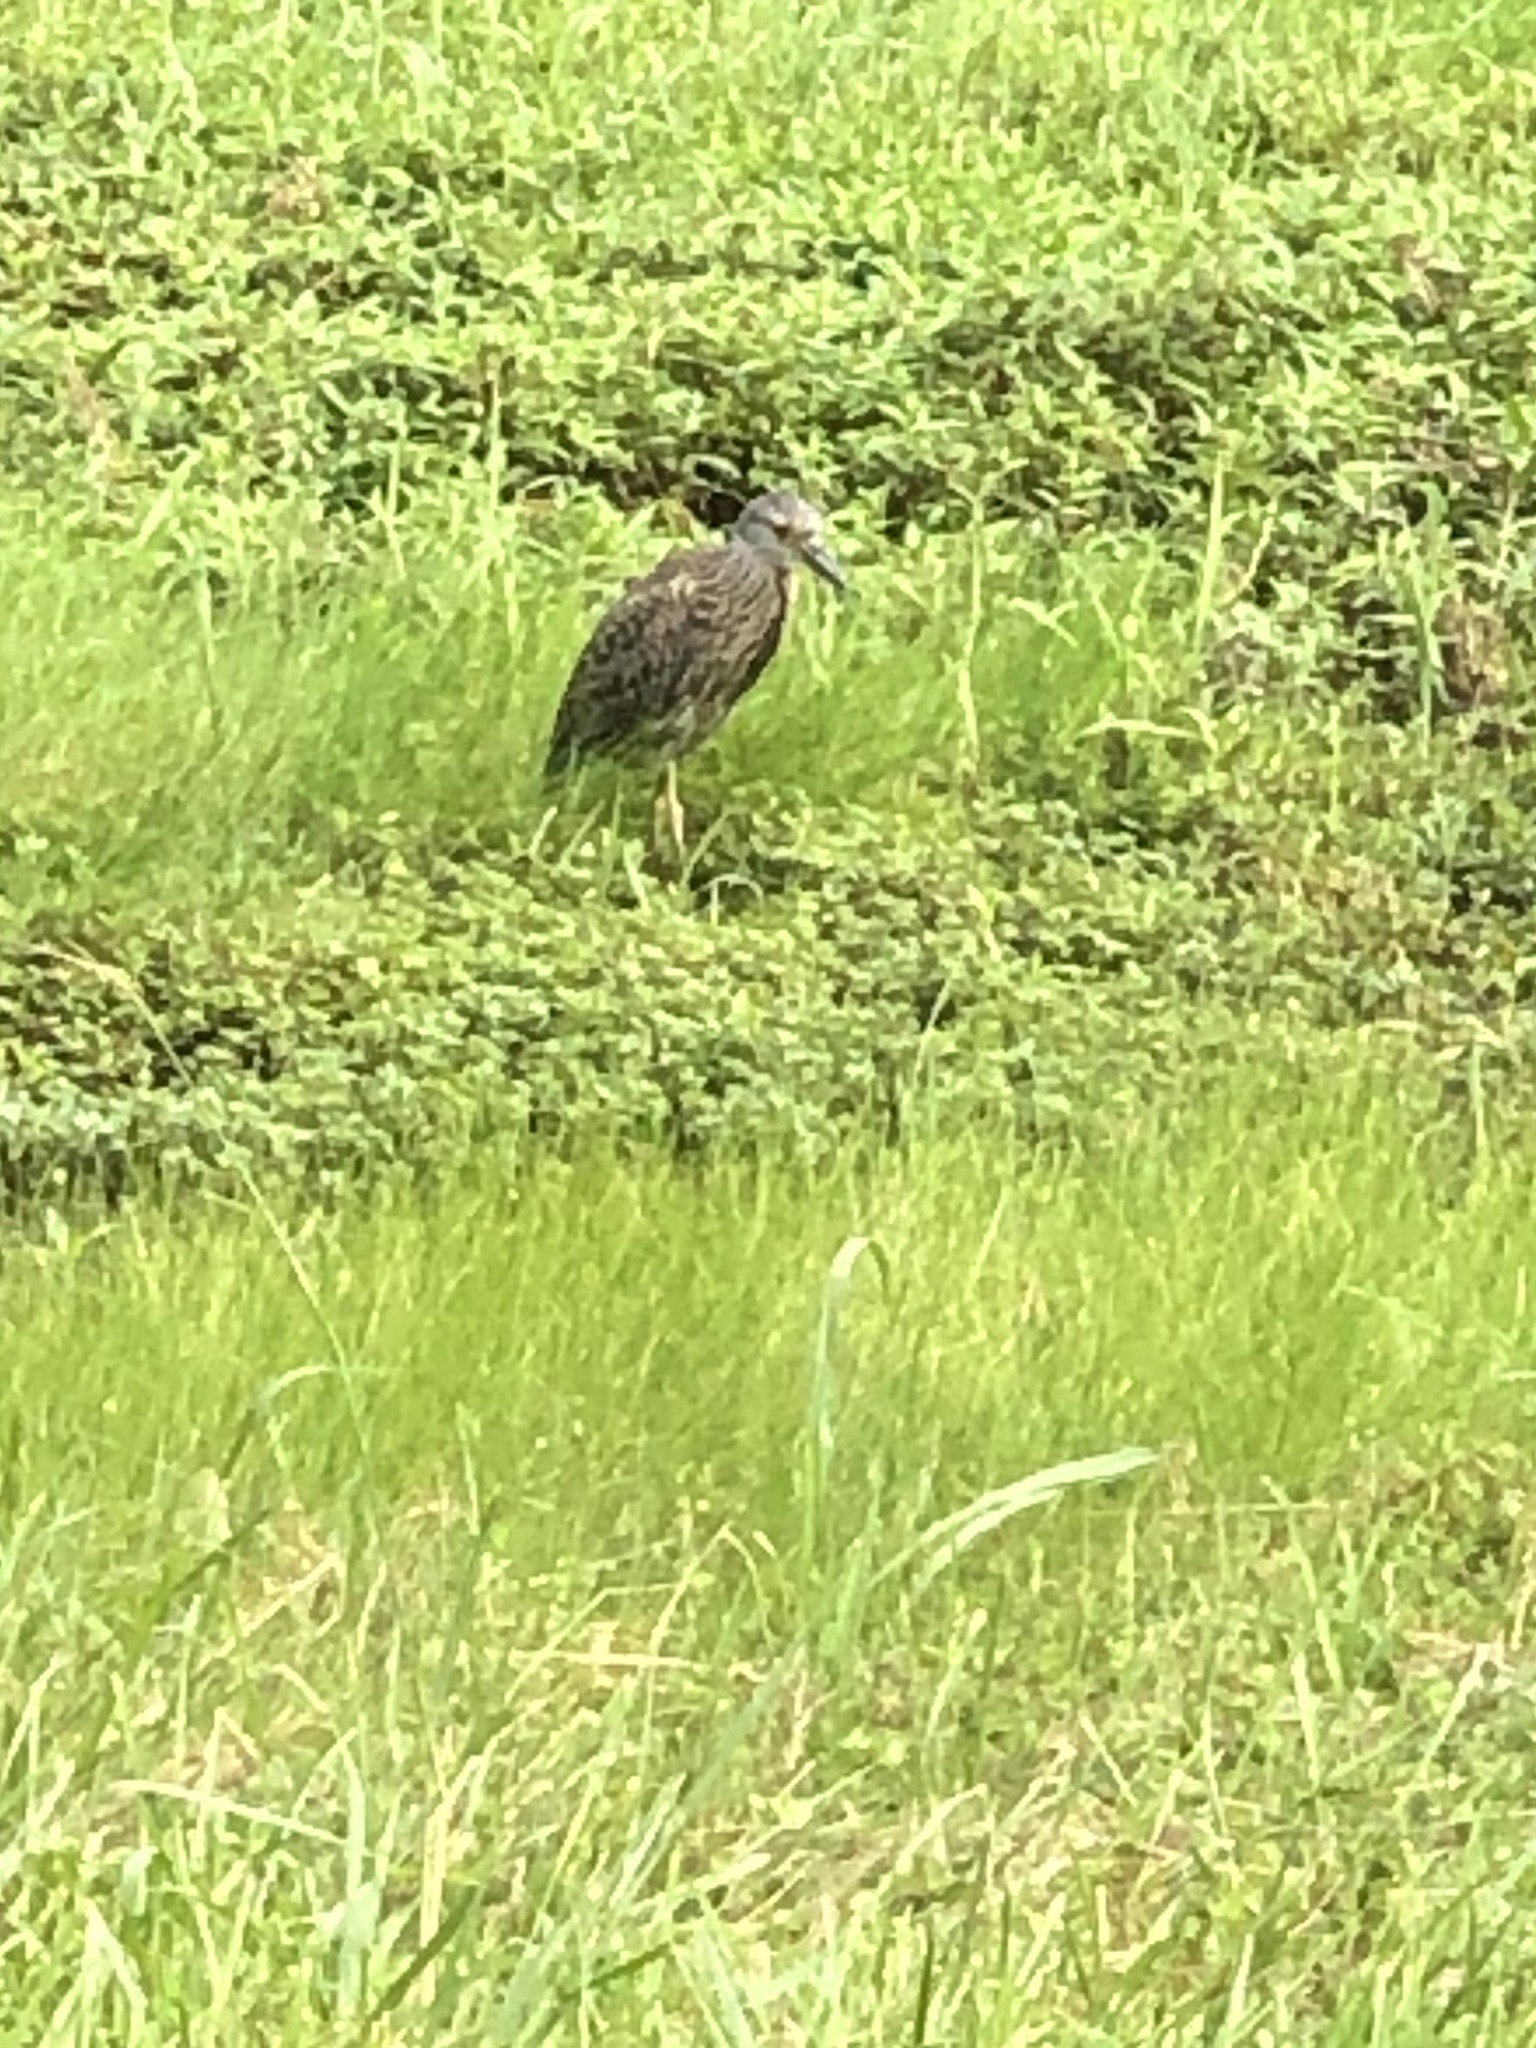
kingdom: Animalia
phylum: Chordata
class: Aves
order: Pelecaniformes
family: Ardeidae
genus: Nyctanassa
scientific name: Nyctanassa violacea
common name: Yellow-crowned night heron
